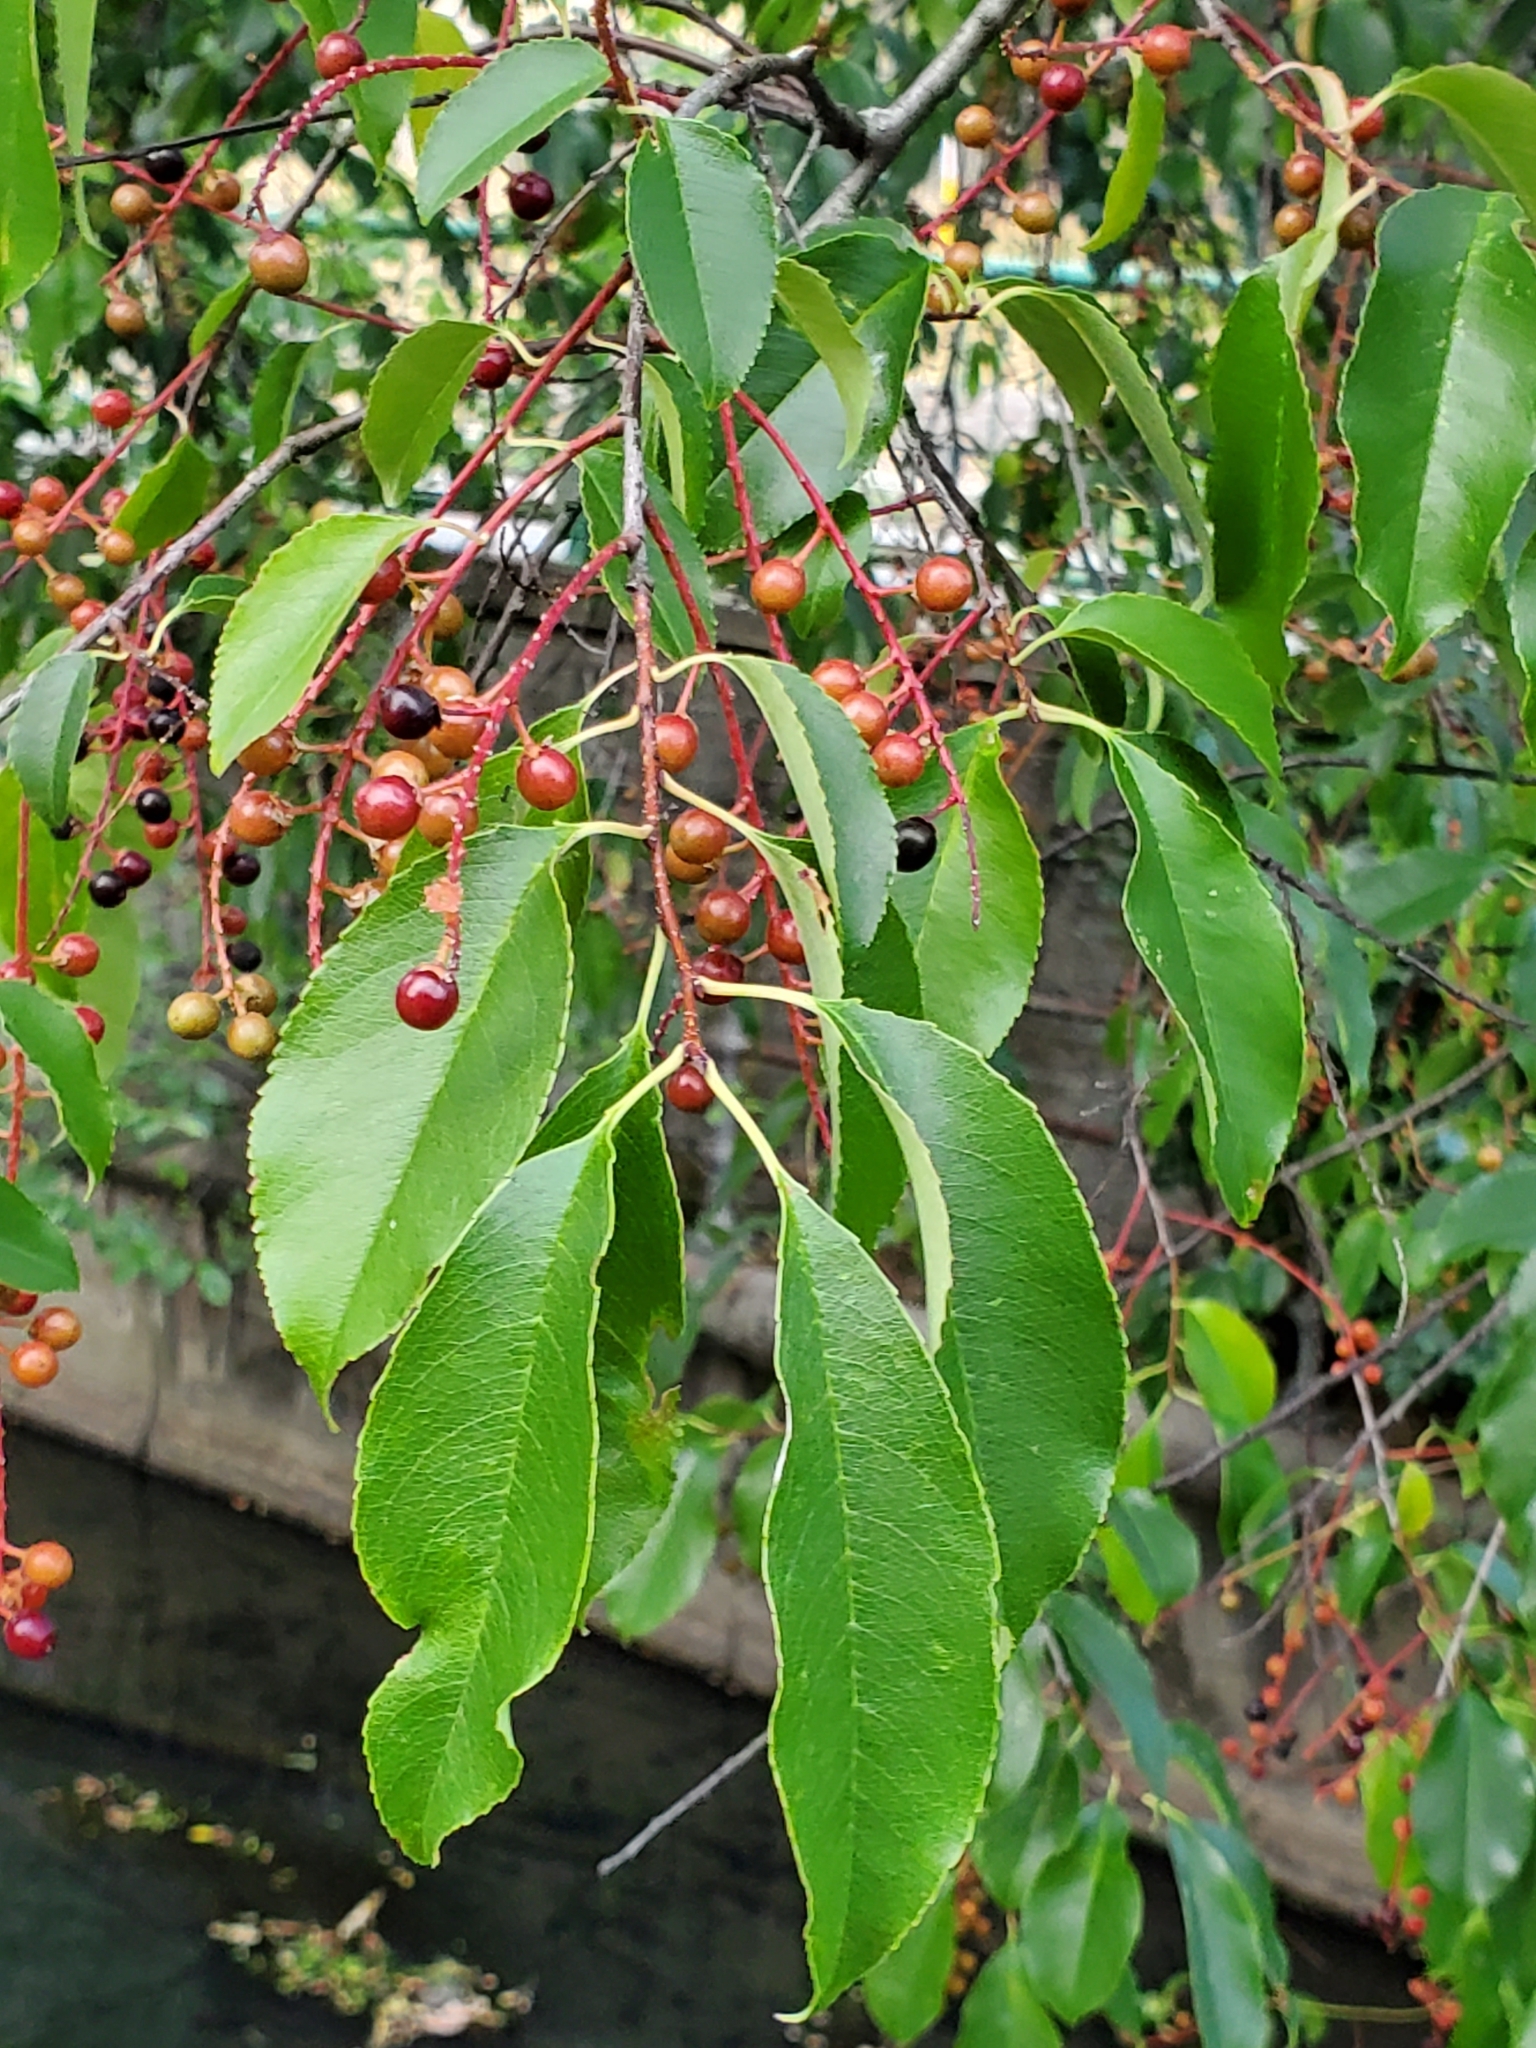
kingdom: Plantae
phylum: Tracheophyta
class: Magnoliopsida
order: Rosales
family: Rosaceae
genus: Prunus
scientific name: Prunus serotina
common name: Black cherry
